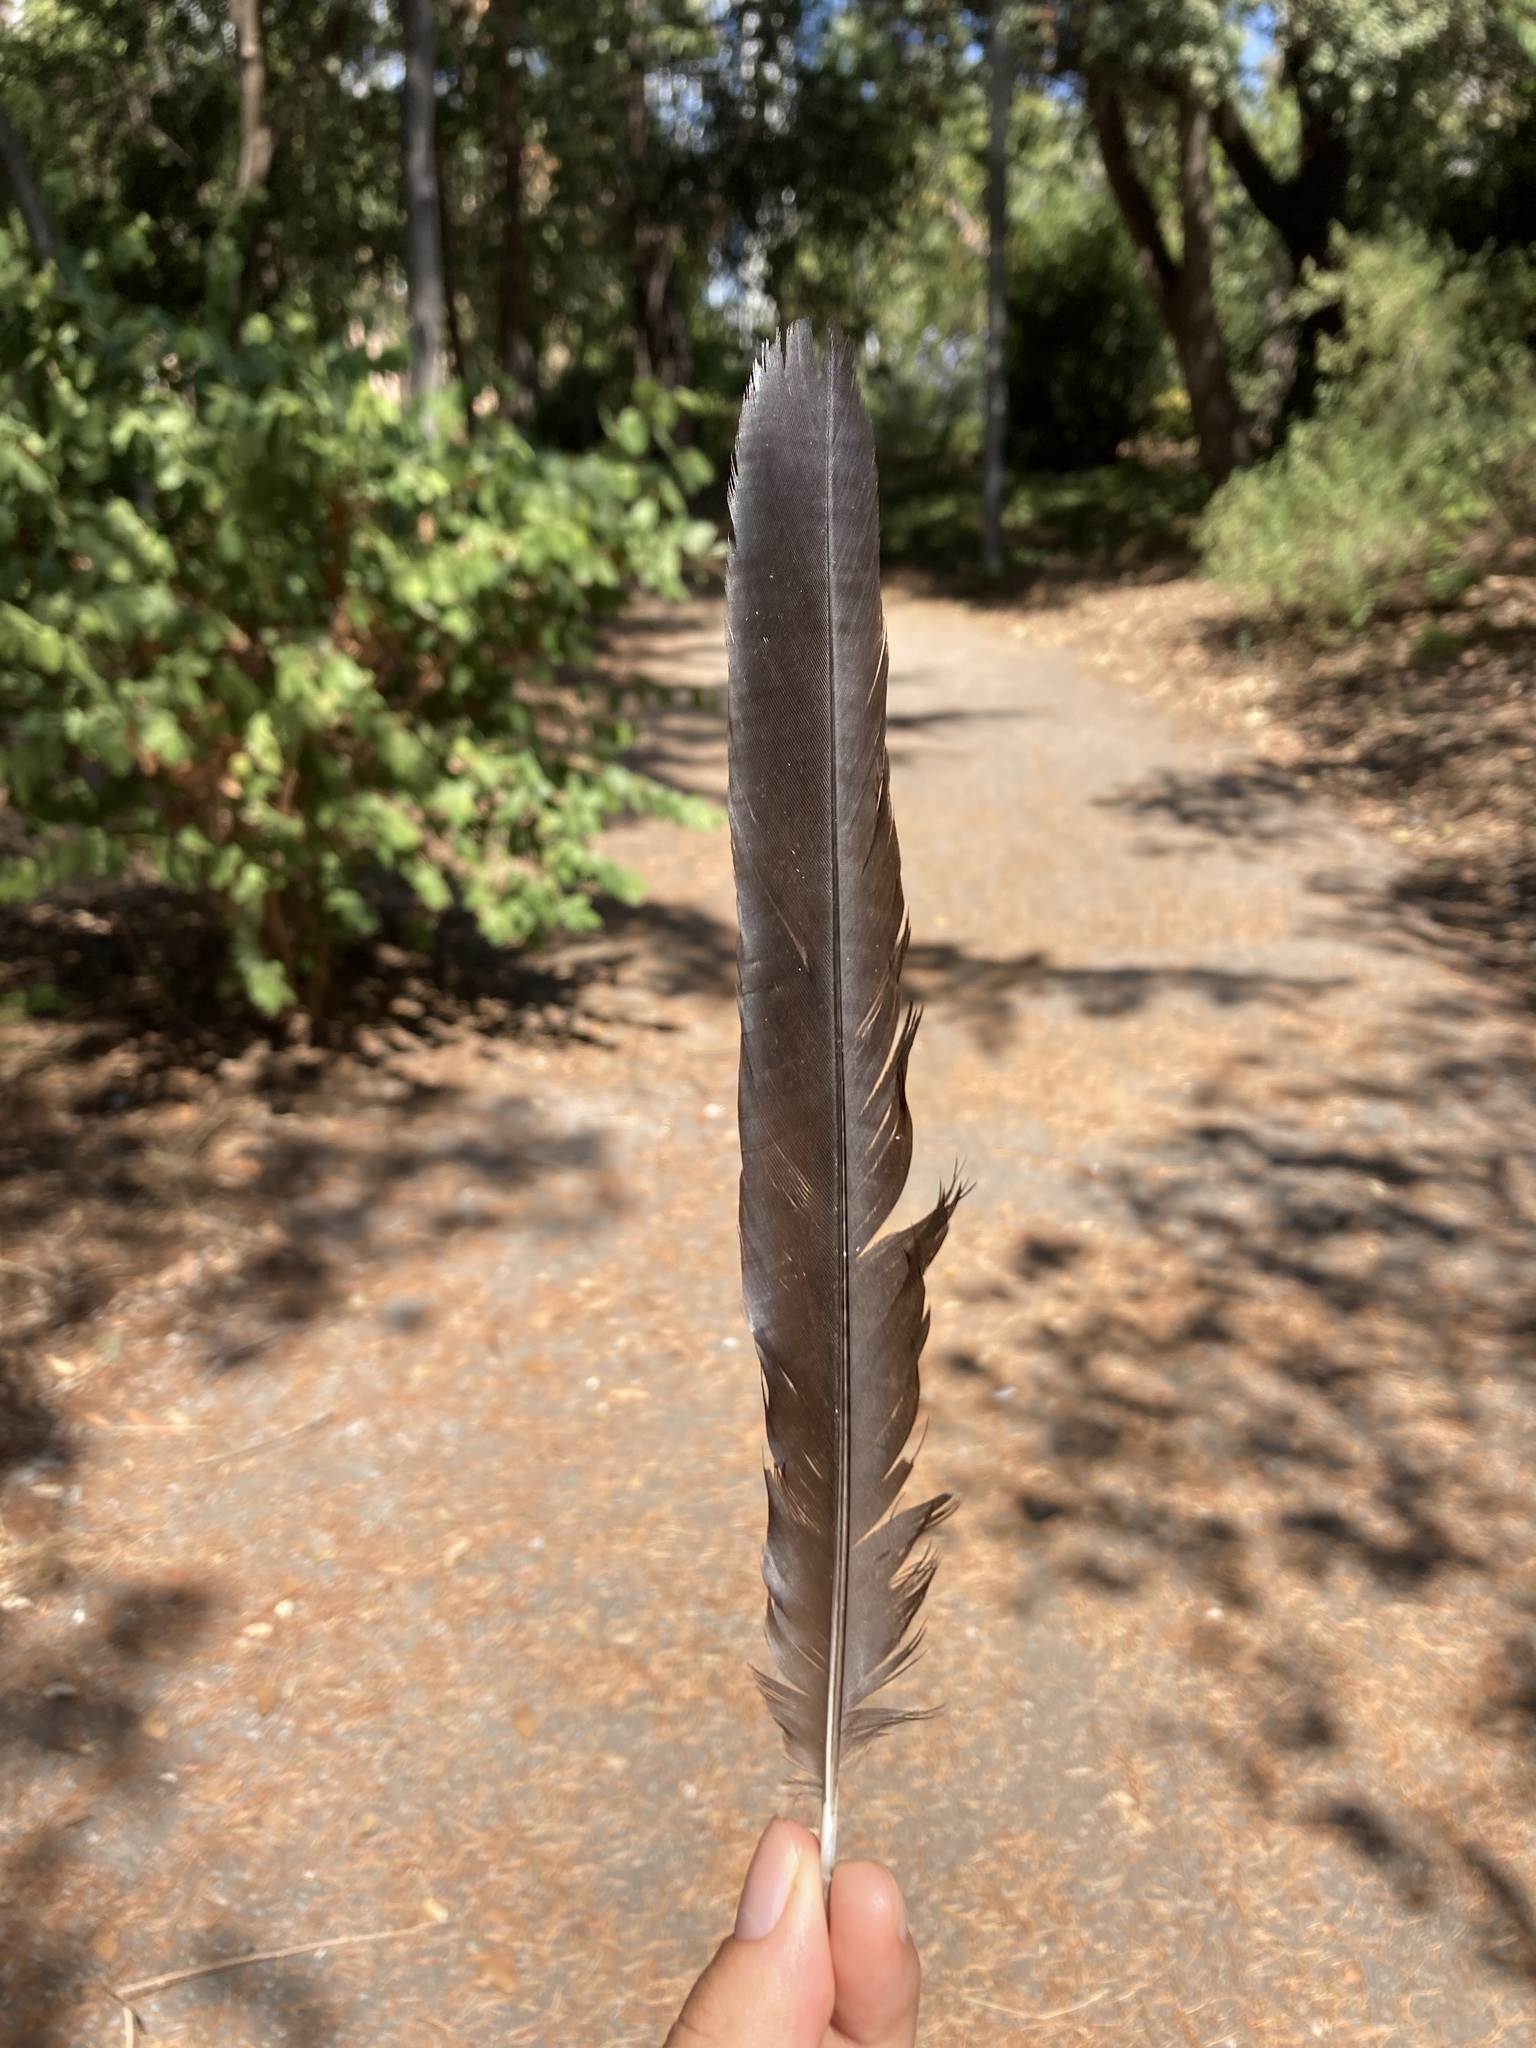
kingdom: Animalia
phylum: Chordata
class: Aves
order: Passeriformes
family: Corvidae
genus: Pica
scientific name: Pica pica
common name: Eurasian magpie
